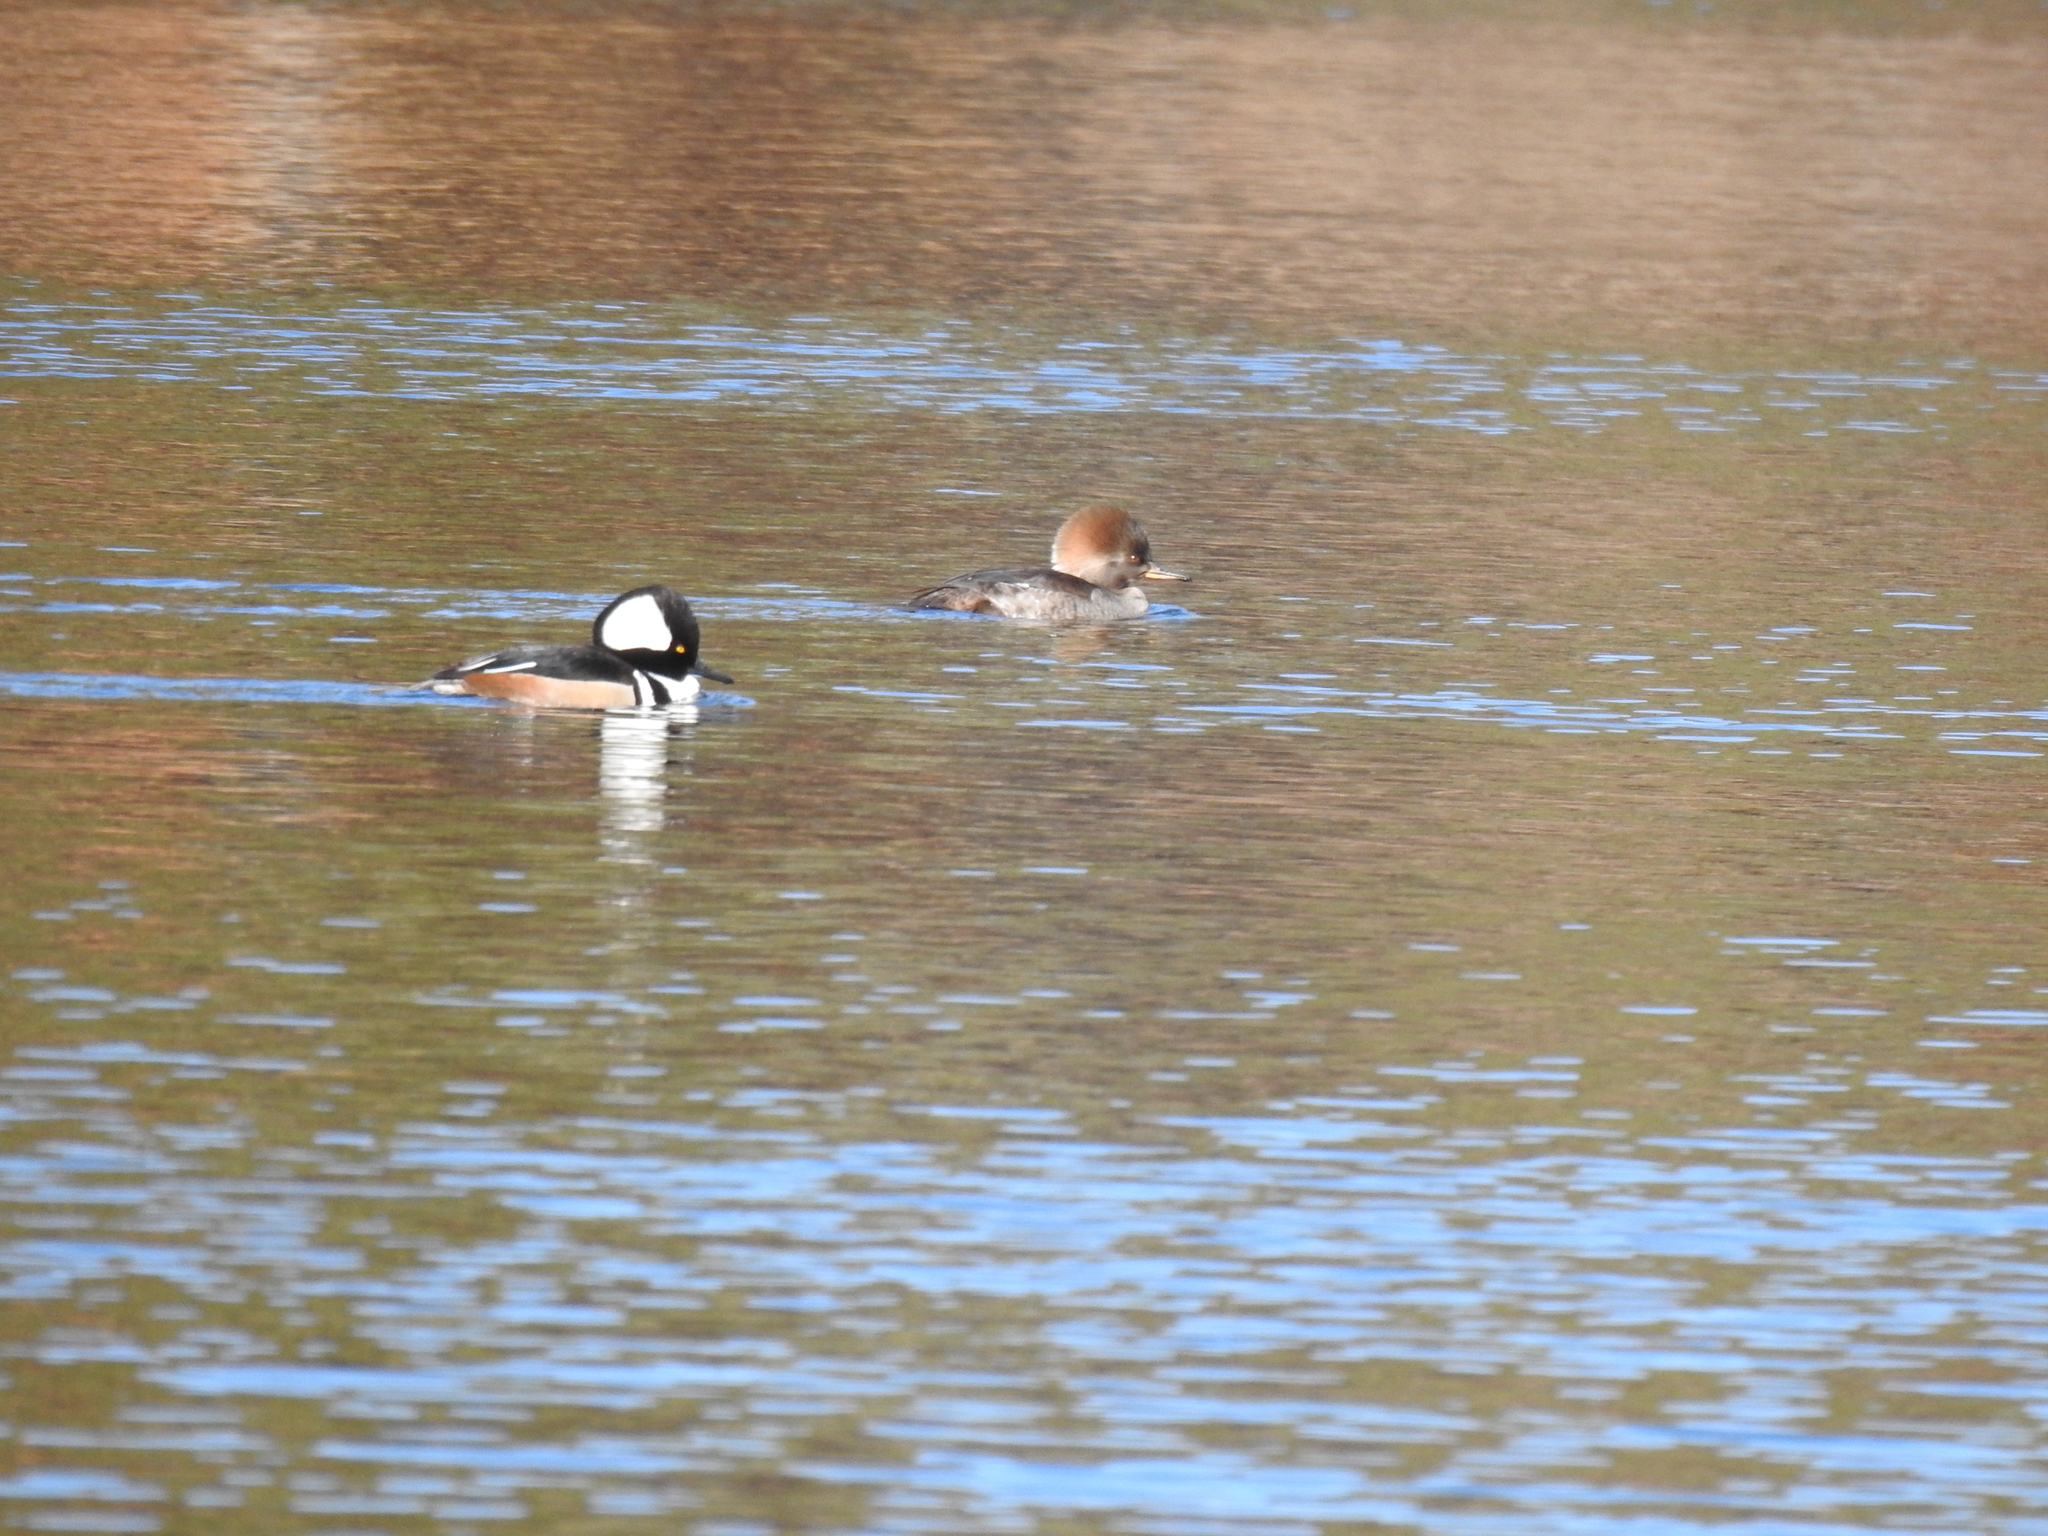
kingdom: Animalia
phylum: Chordata
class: Aves
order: Anseriformes
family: Anatidae
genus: Lophodytes
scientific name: Lophodytes cucullatus
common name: Hooded merganser
